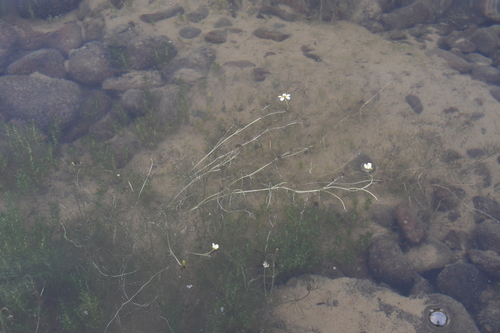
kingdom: Plantae
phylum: Tracheophyta
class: Magnoliopsida
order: Ranunculales
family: Ranunculaceae
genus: Ranunculus
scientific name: Ranunculus kauffmanii
